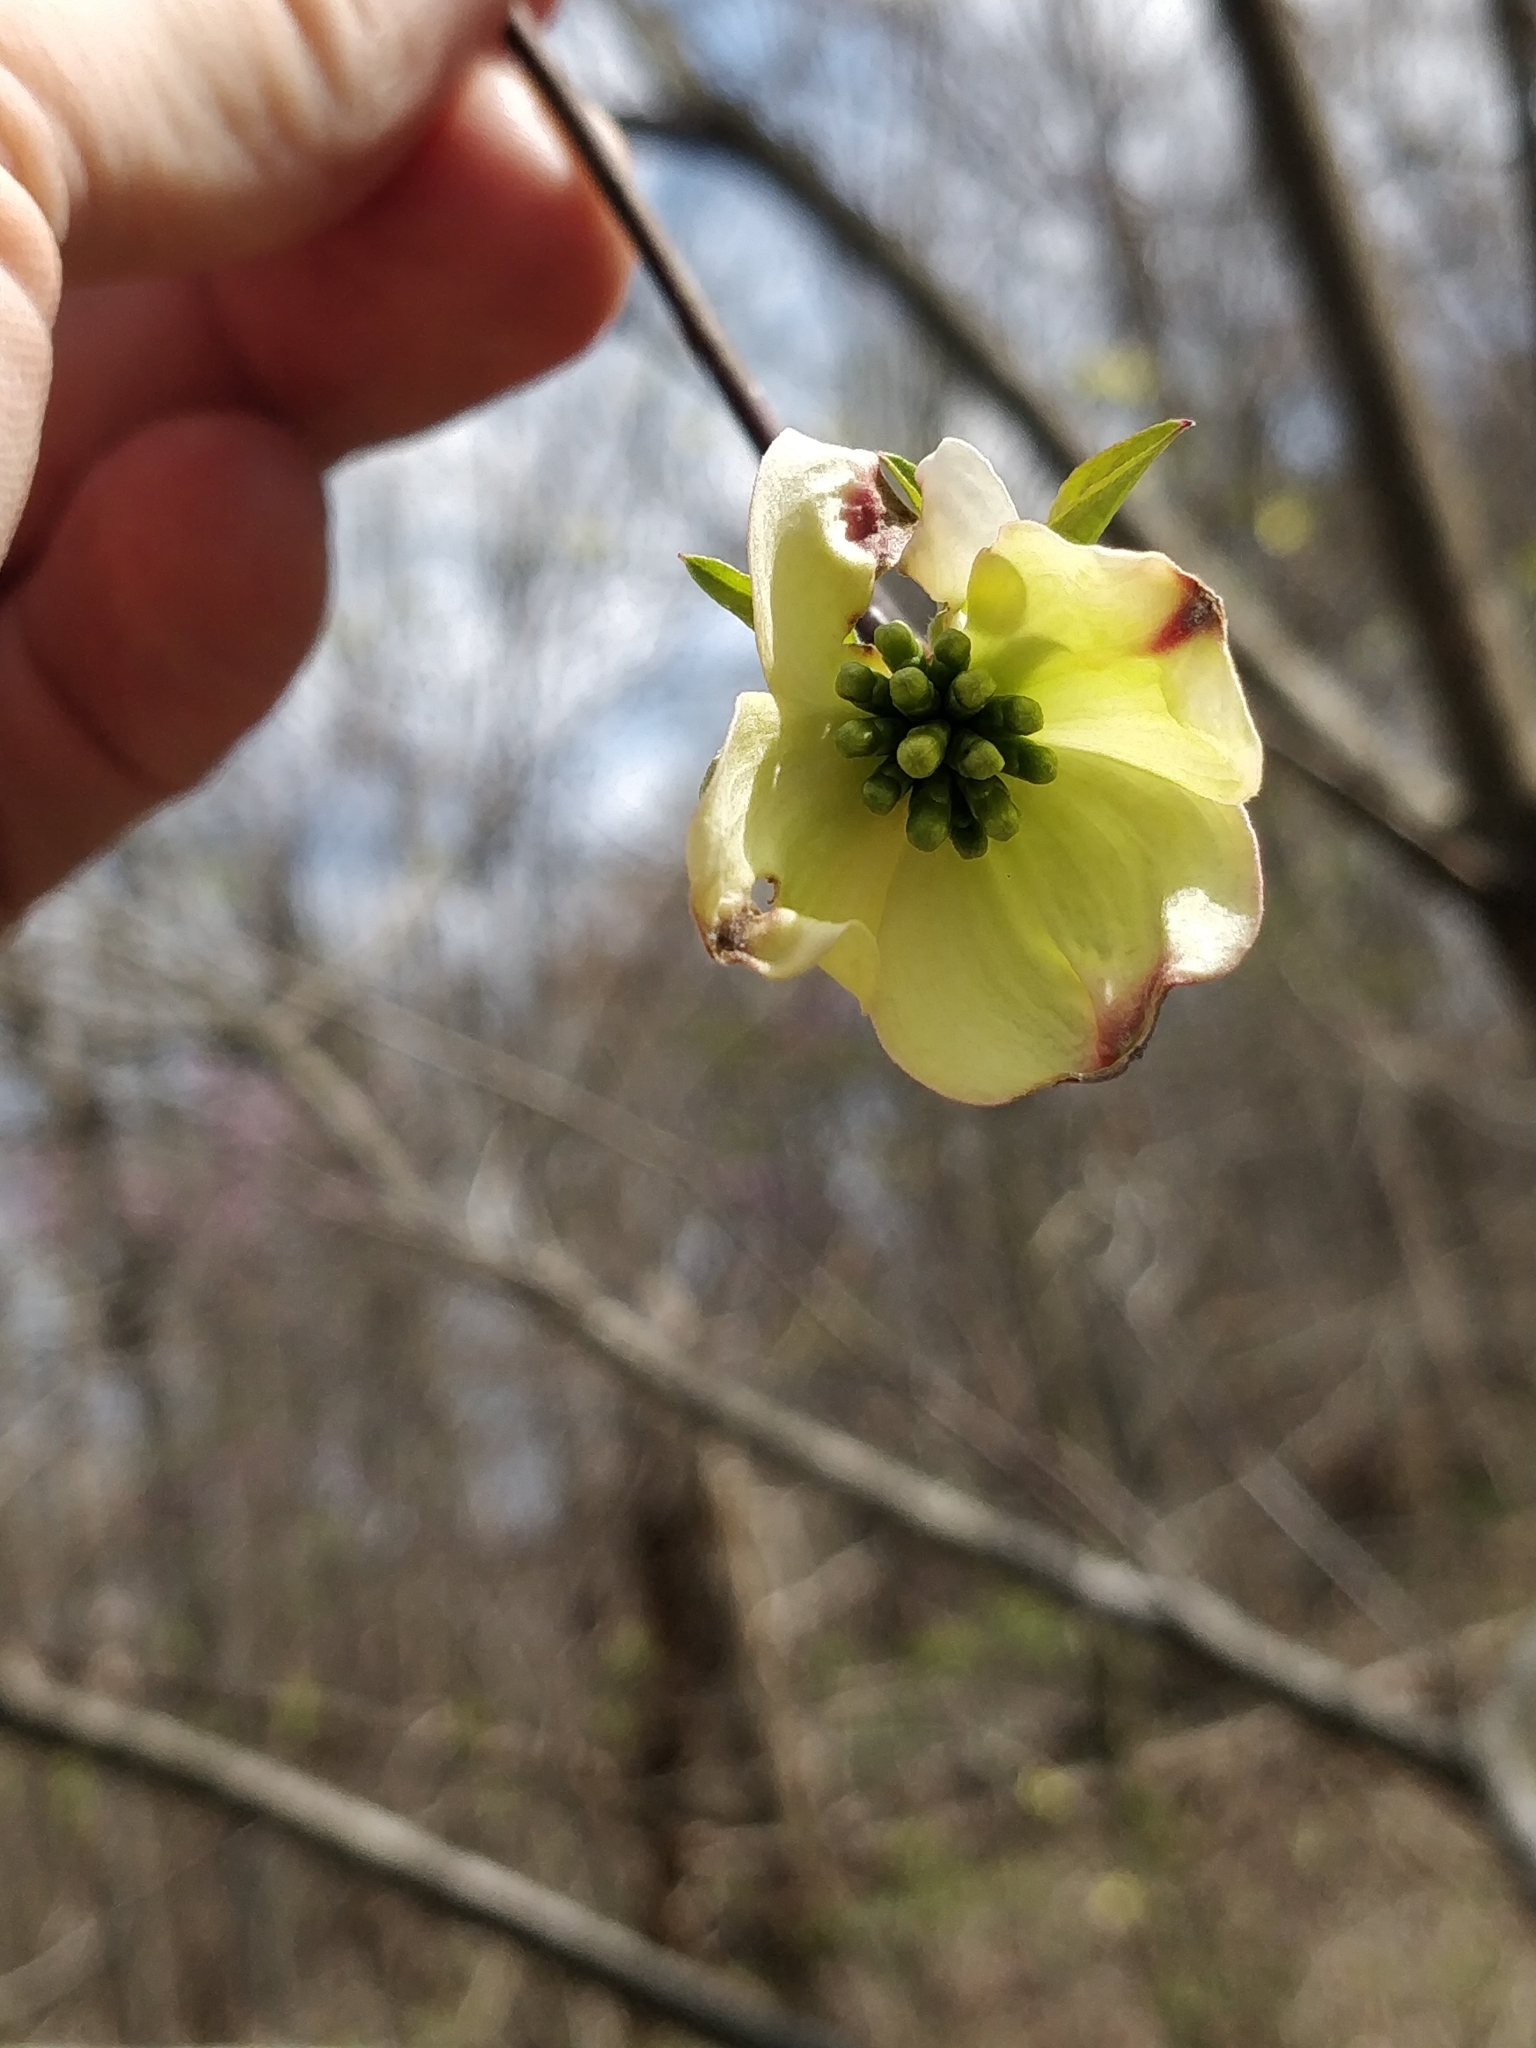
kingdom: Plantae
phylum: Tracheophyta
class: Magnoliopsida
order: Cornales
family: Cornaceae
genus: Cornus
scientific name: Cornus florida
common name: Flowering dogwood
